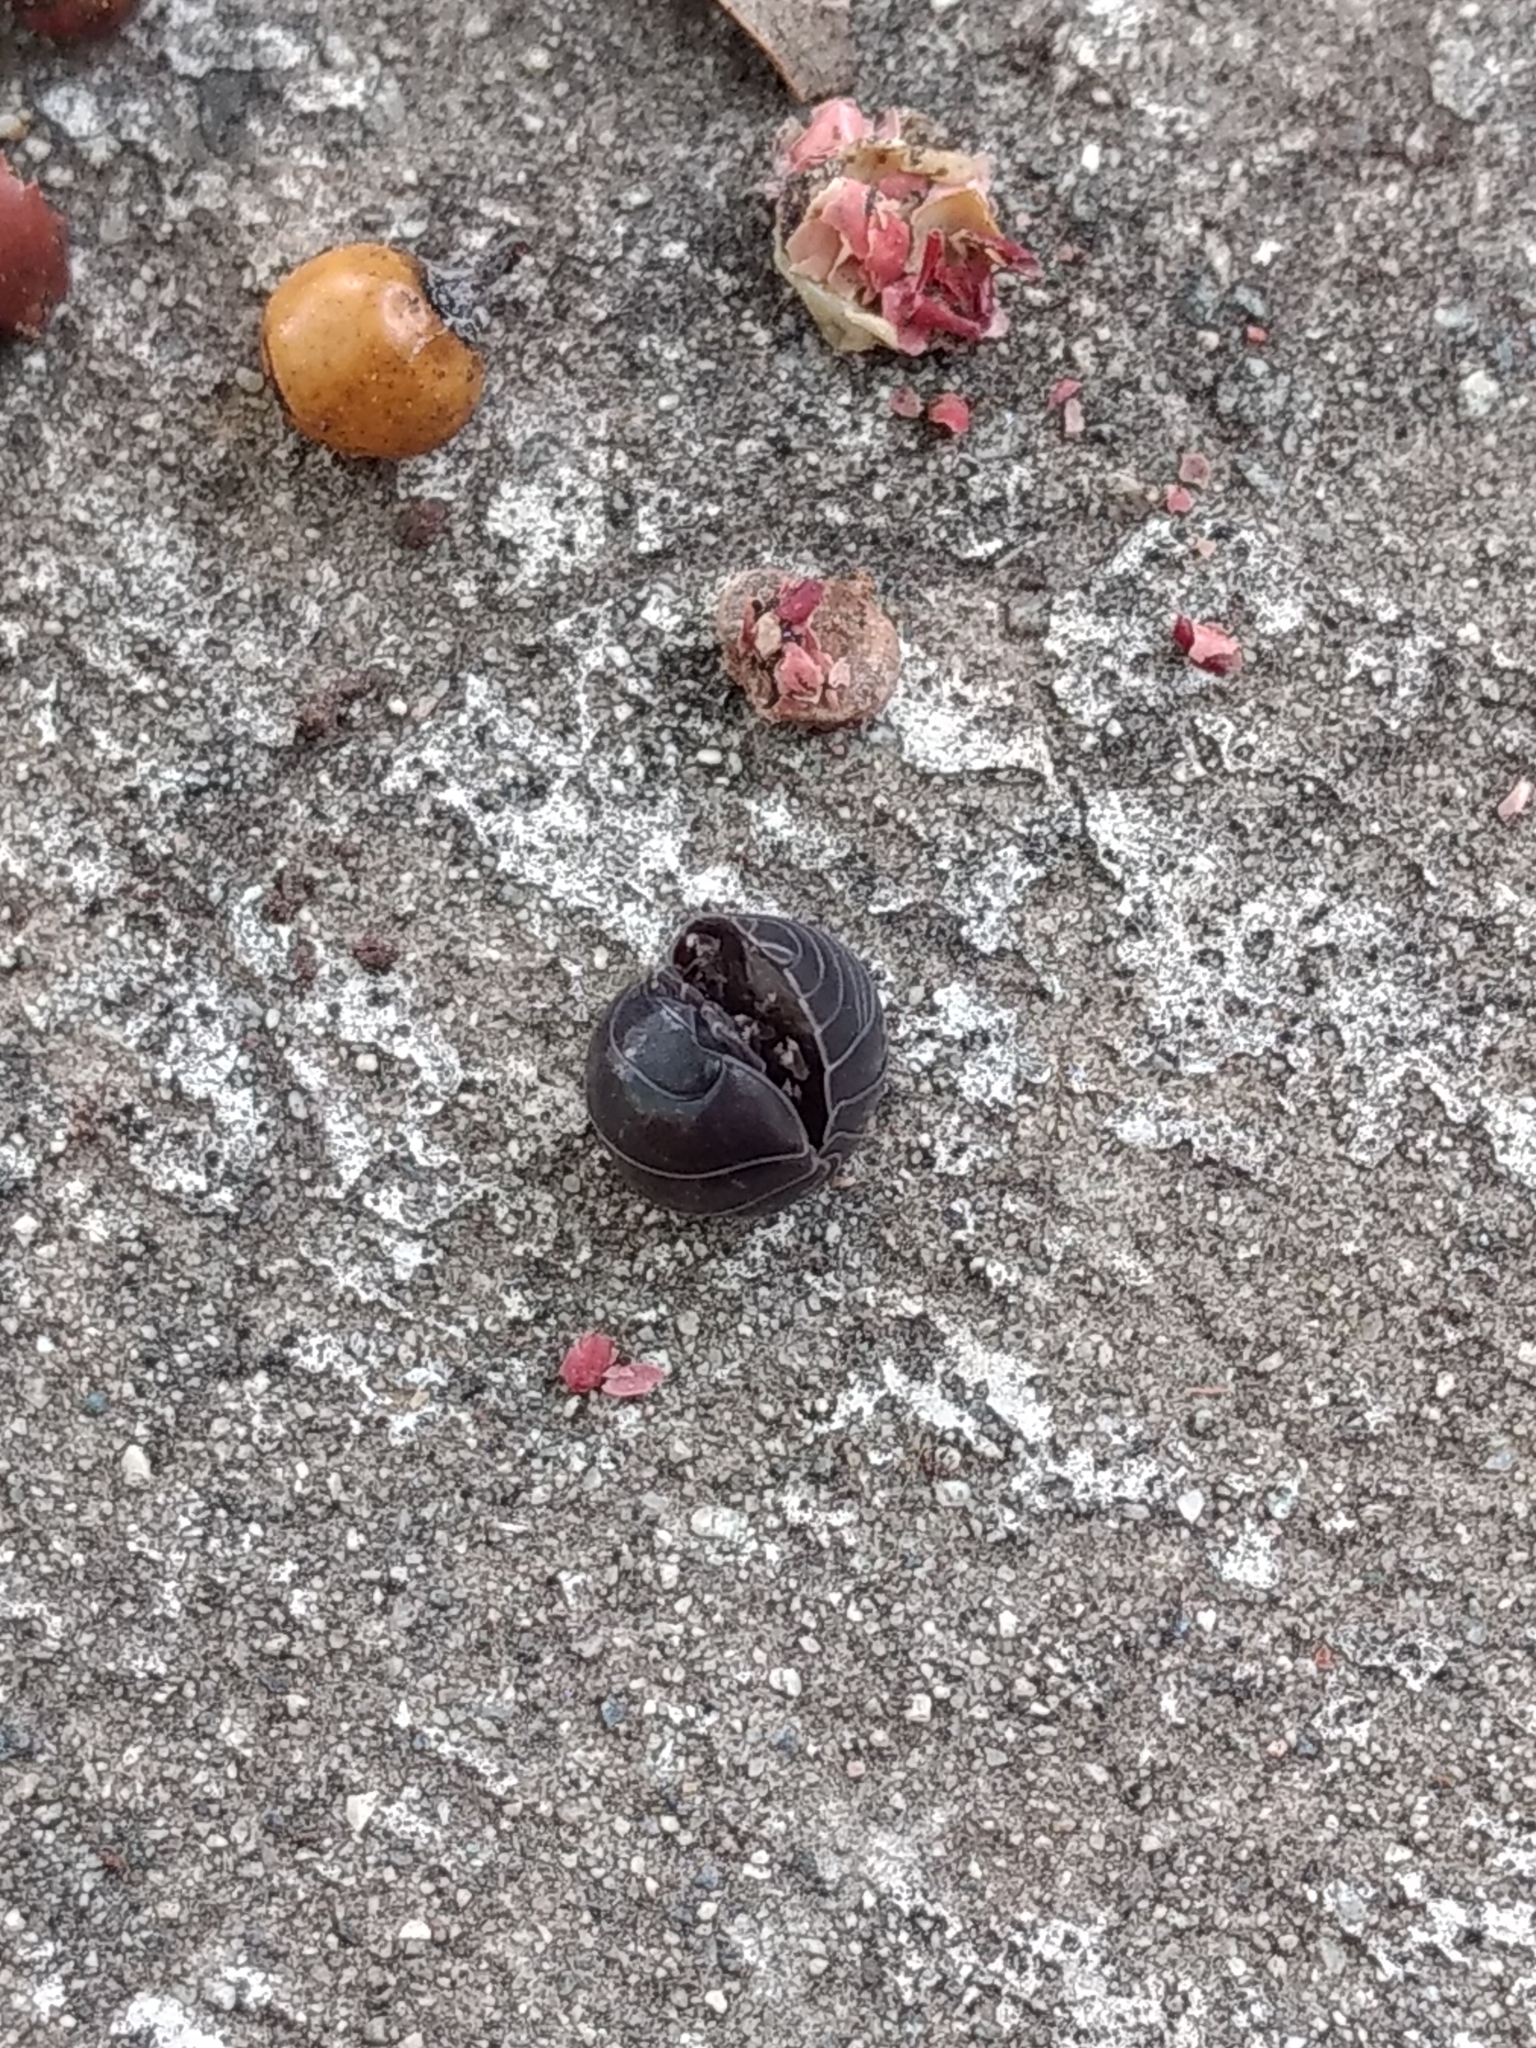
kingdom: Animalia
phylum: Arthropoda
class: Malacostraca
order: Isopoda
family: Armadillidiidae
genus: Armadillidium
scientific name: Armadillidium vulgare
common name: Common pill woodlouse
